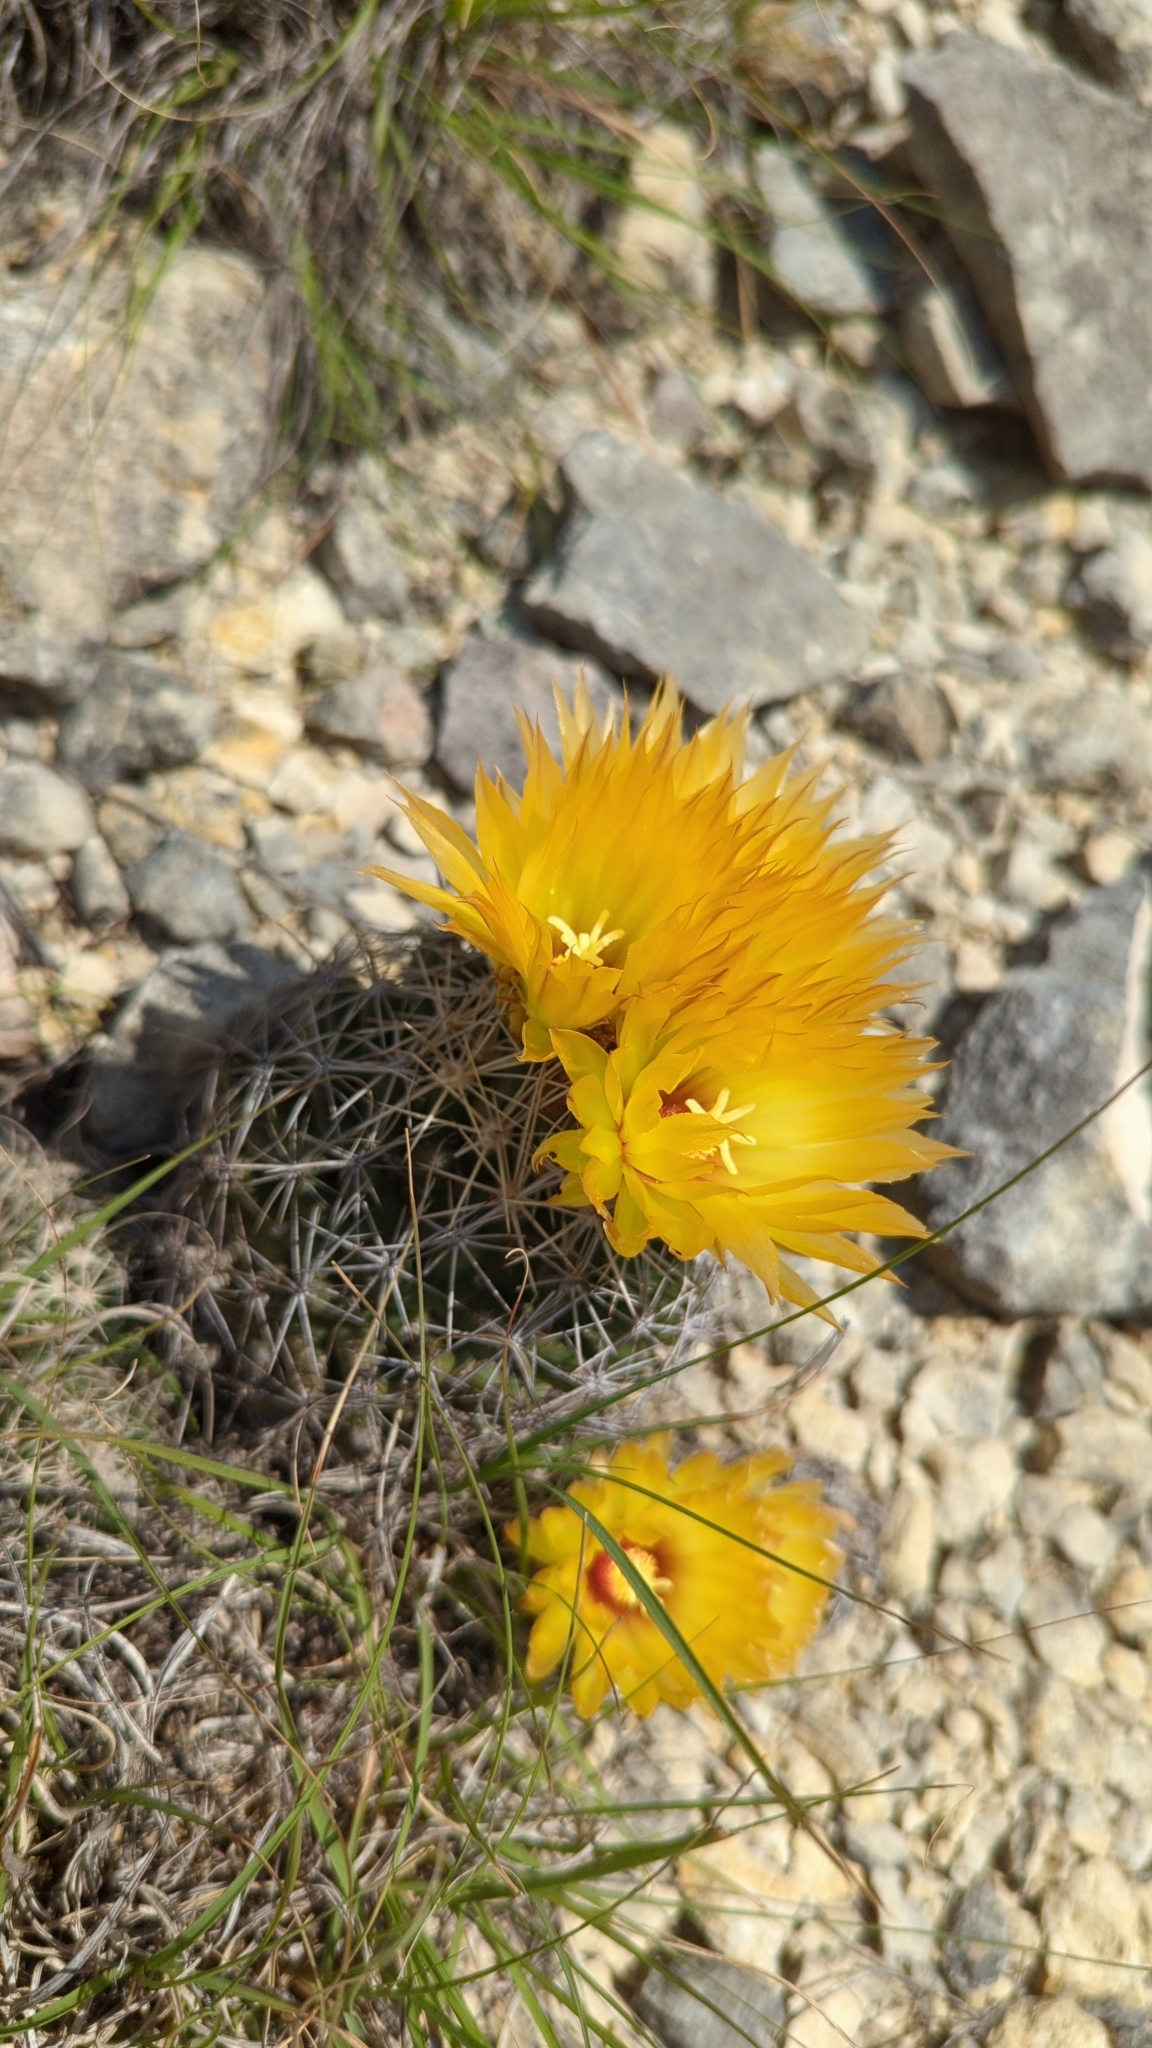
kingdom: Plantae
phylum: Tracheophyta
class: Magnoliopsida
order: Caryophyllales
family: Cactaceae
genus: Coryphantha
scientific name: Coryphantha sulcata
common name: Finger cactus
